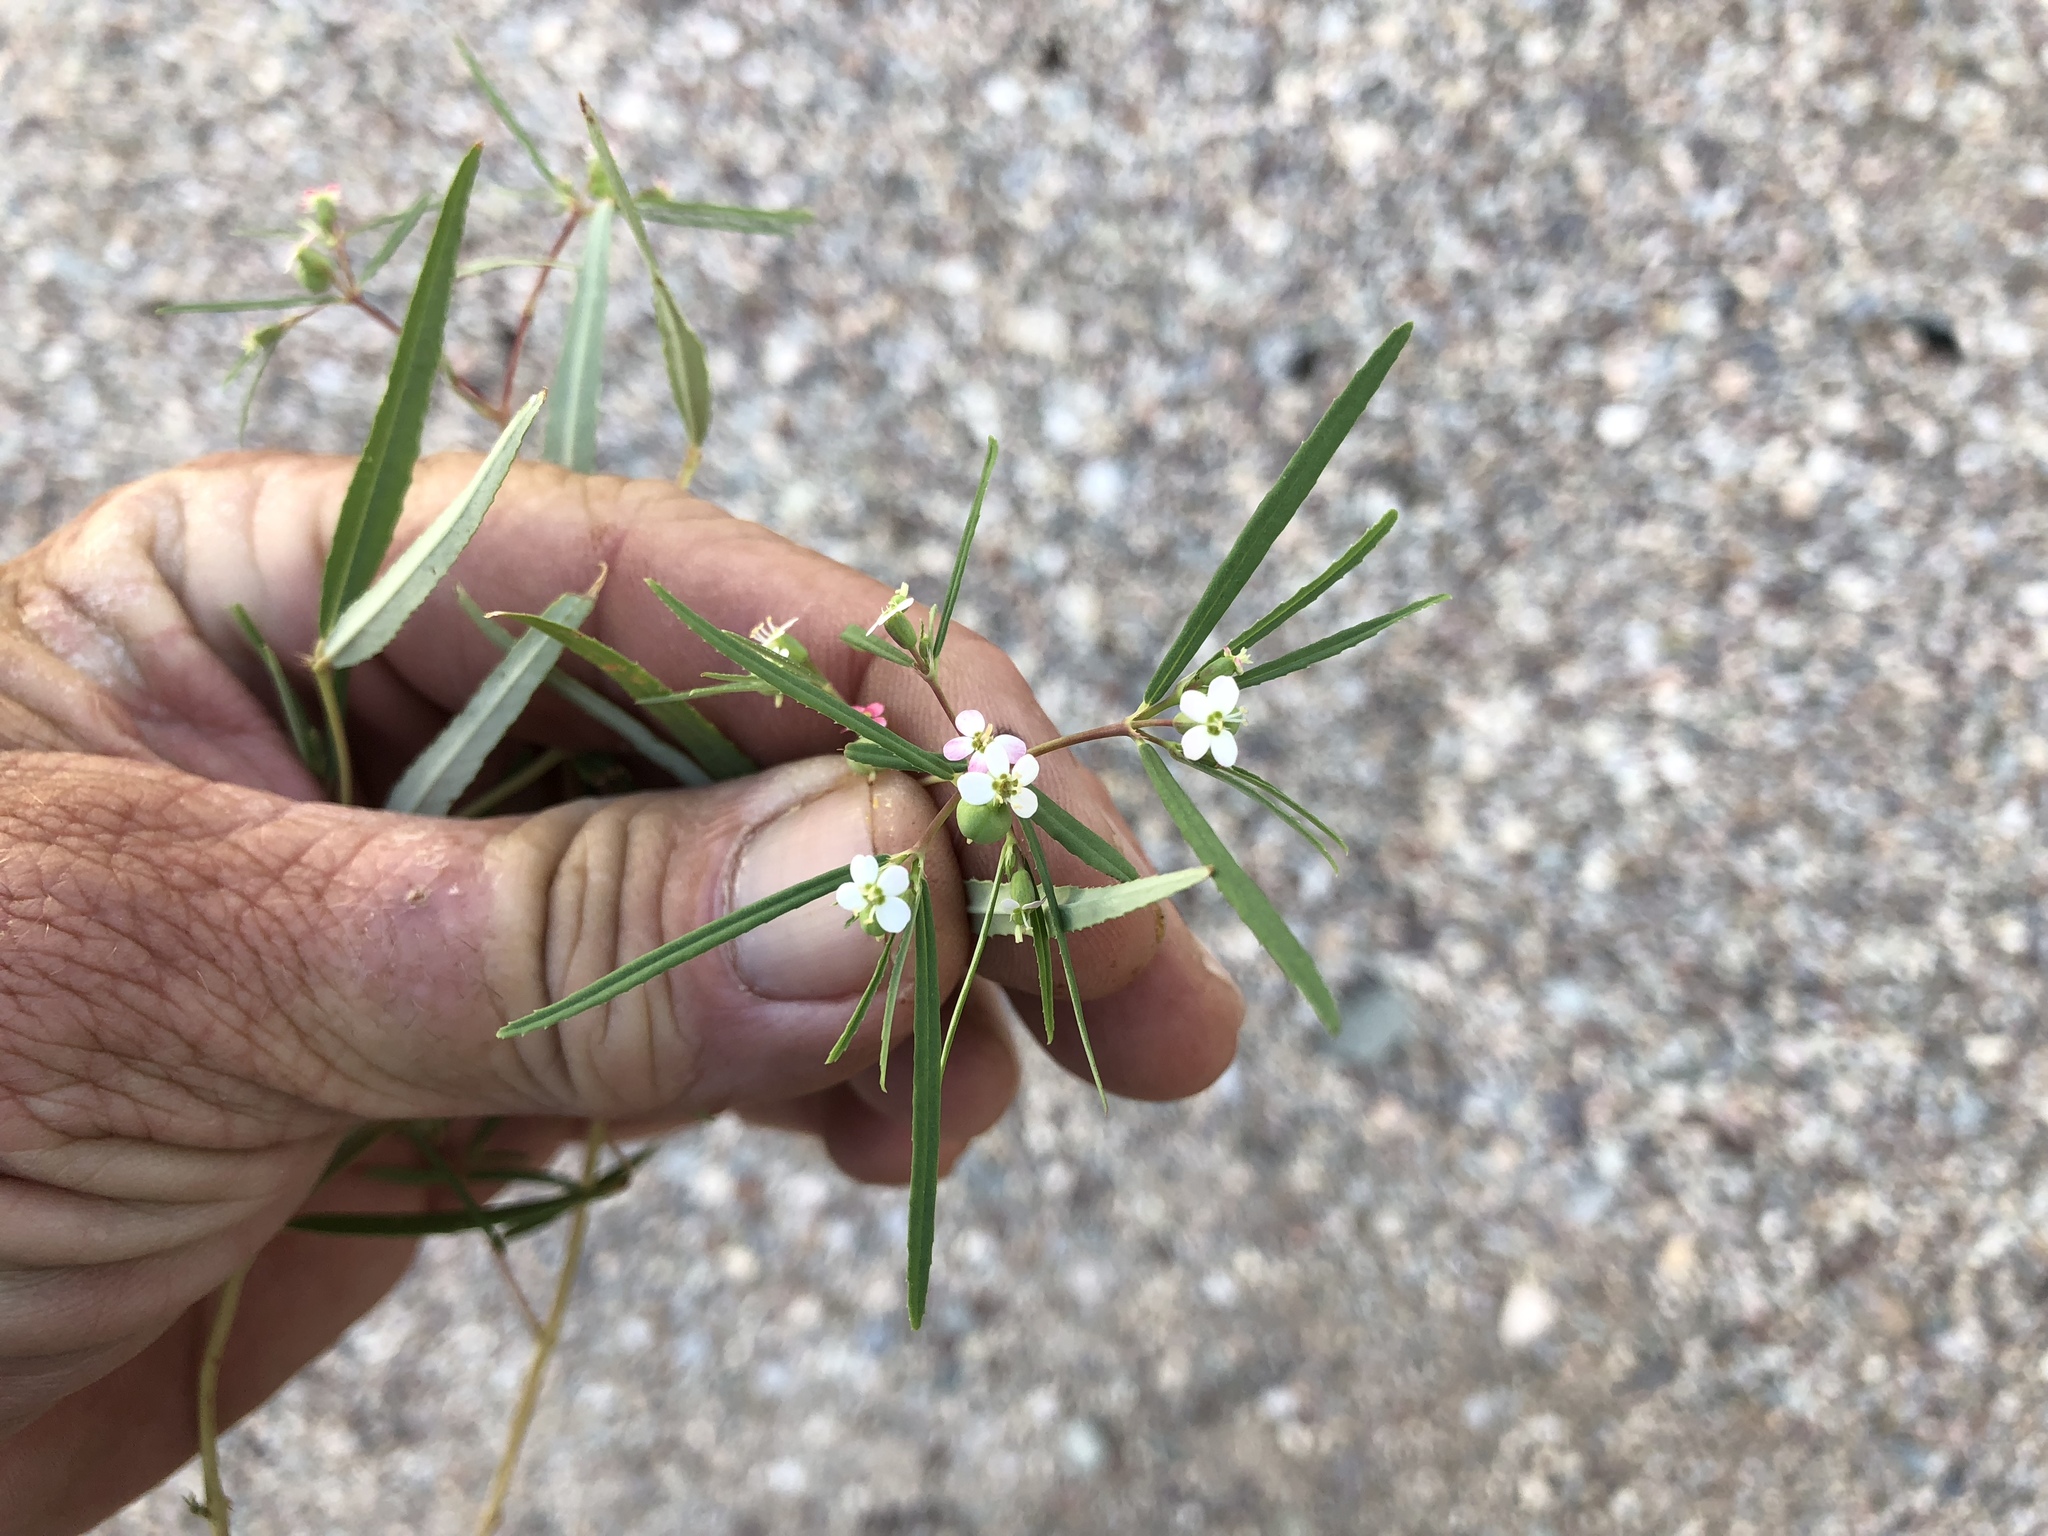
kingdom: Plantae
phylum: Tracheophyta
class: Magnoliopsida
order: Malpighiales
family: Euphorbiaceae
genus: Euphorbia
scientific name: Euphorbia florida
